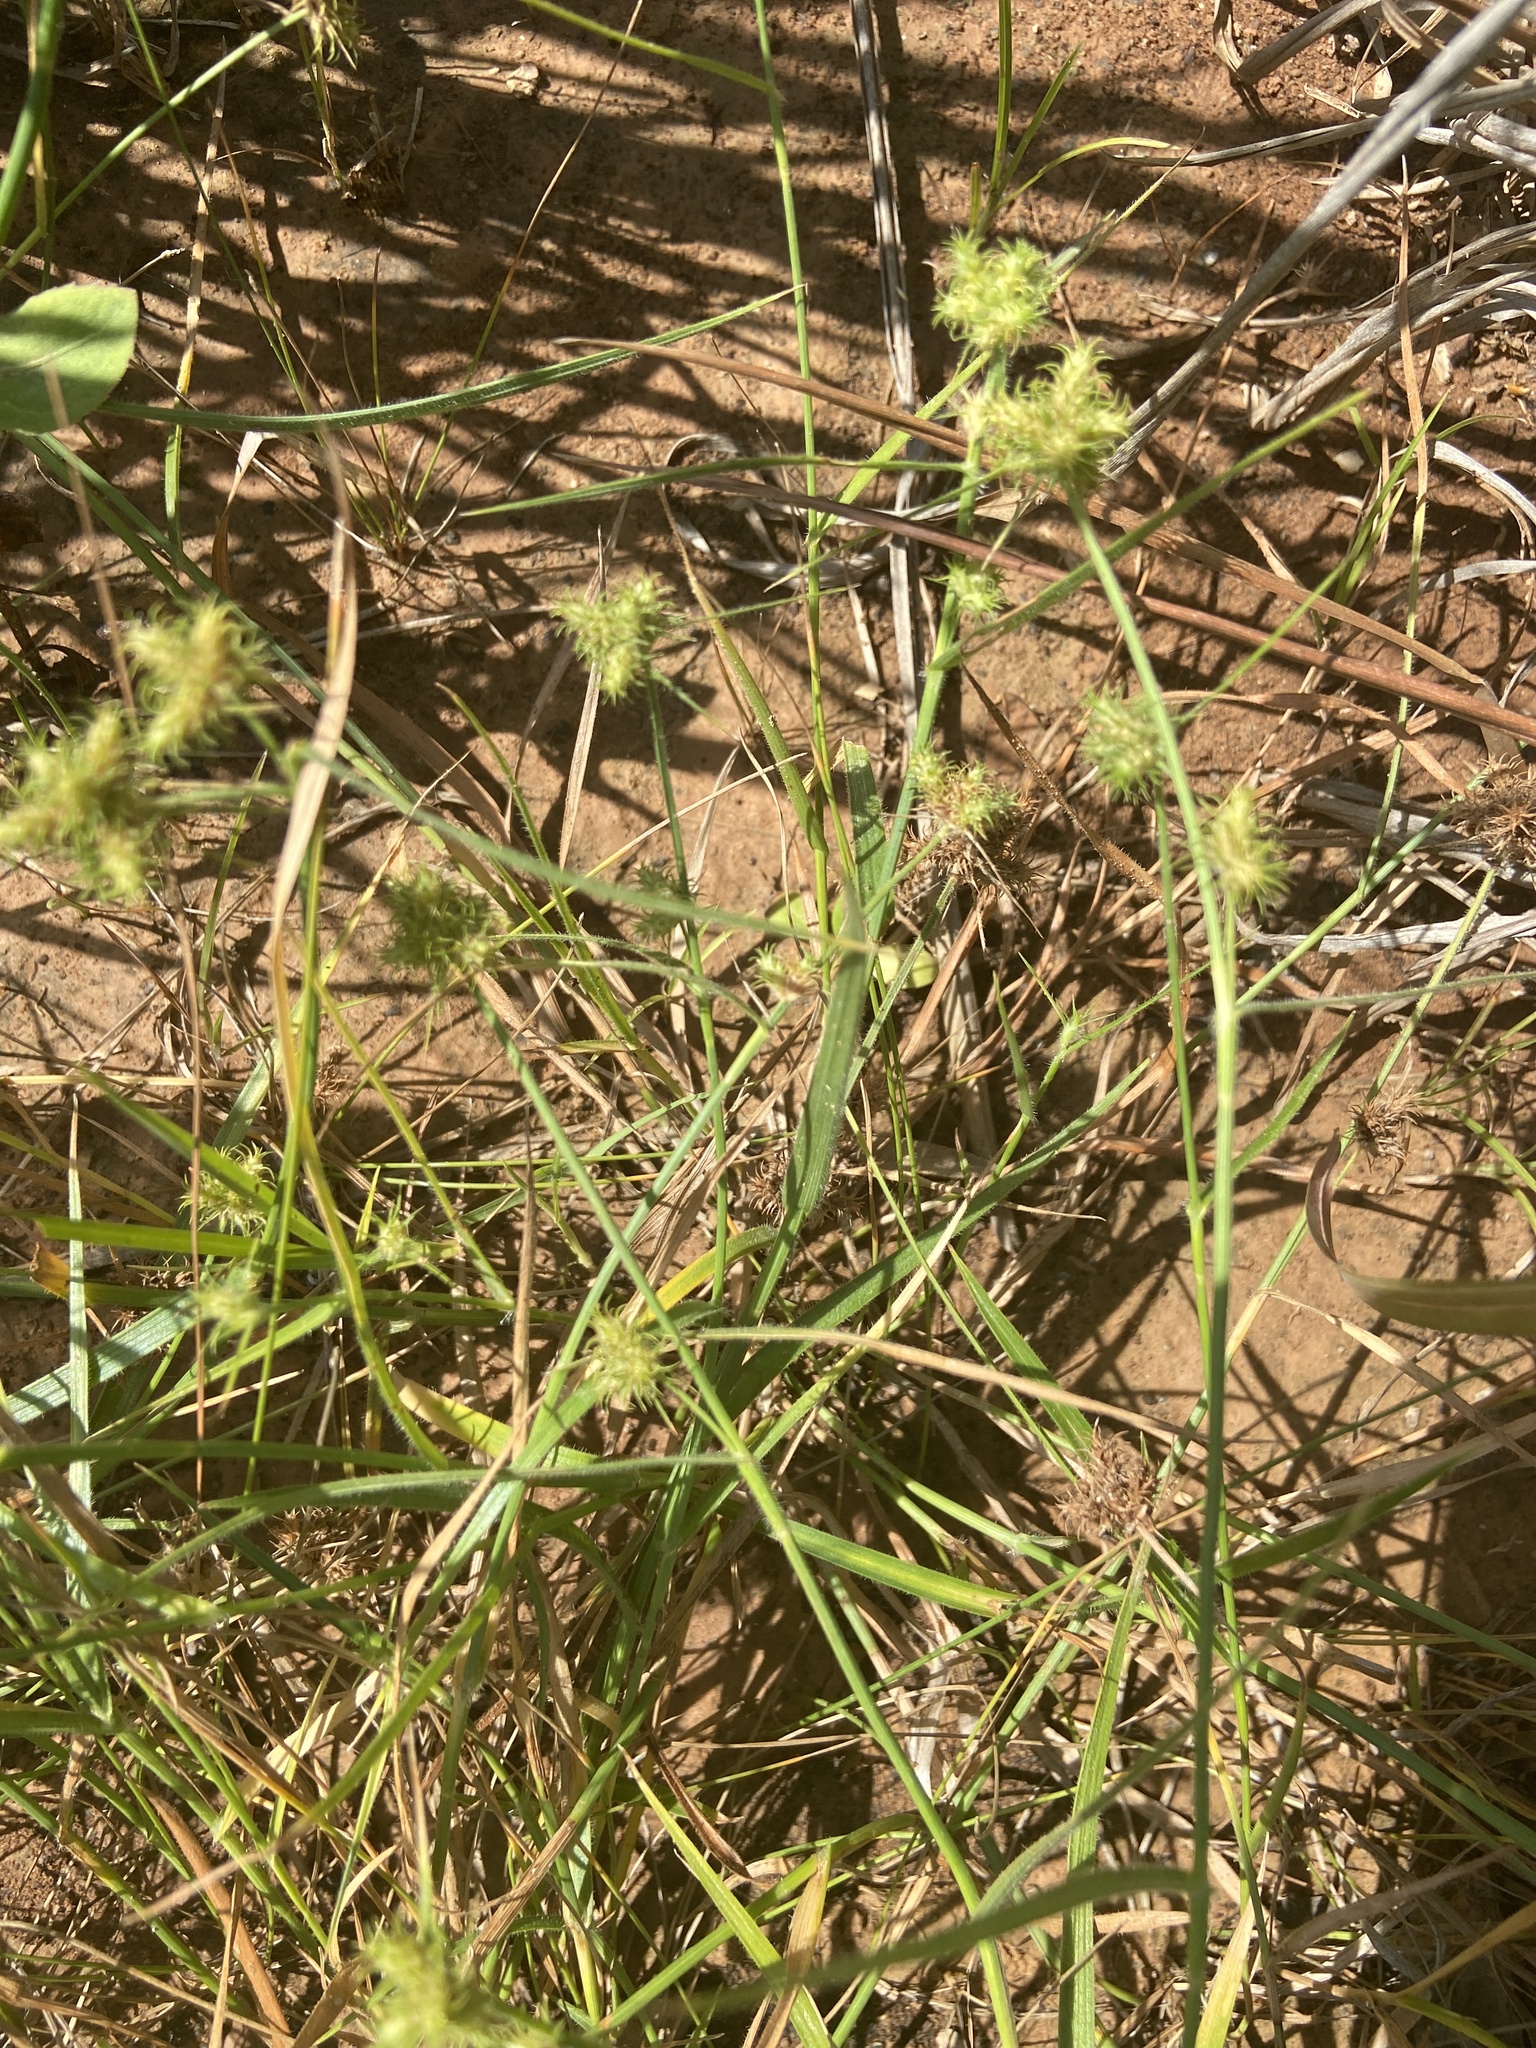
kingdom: Plantae
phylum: Tracheophyta
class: Liliopsida
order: Poales
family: Cyperaceae
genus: Fuirena
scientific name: Fuirena simplex
